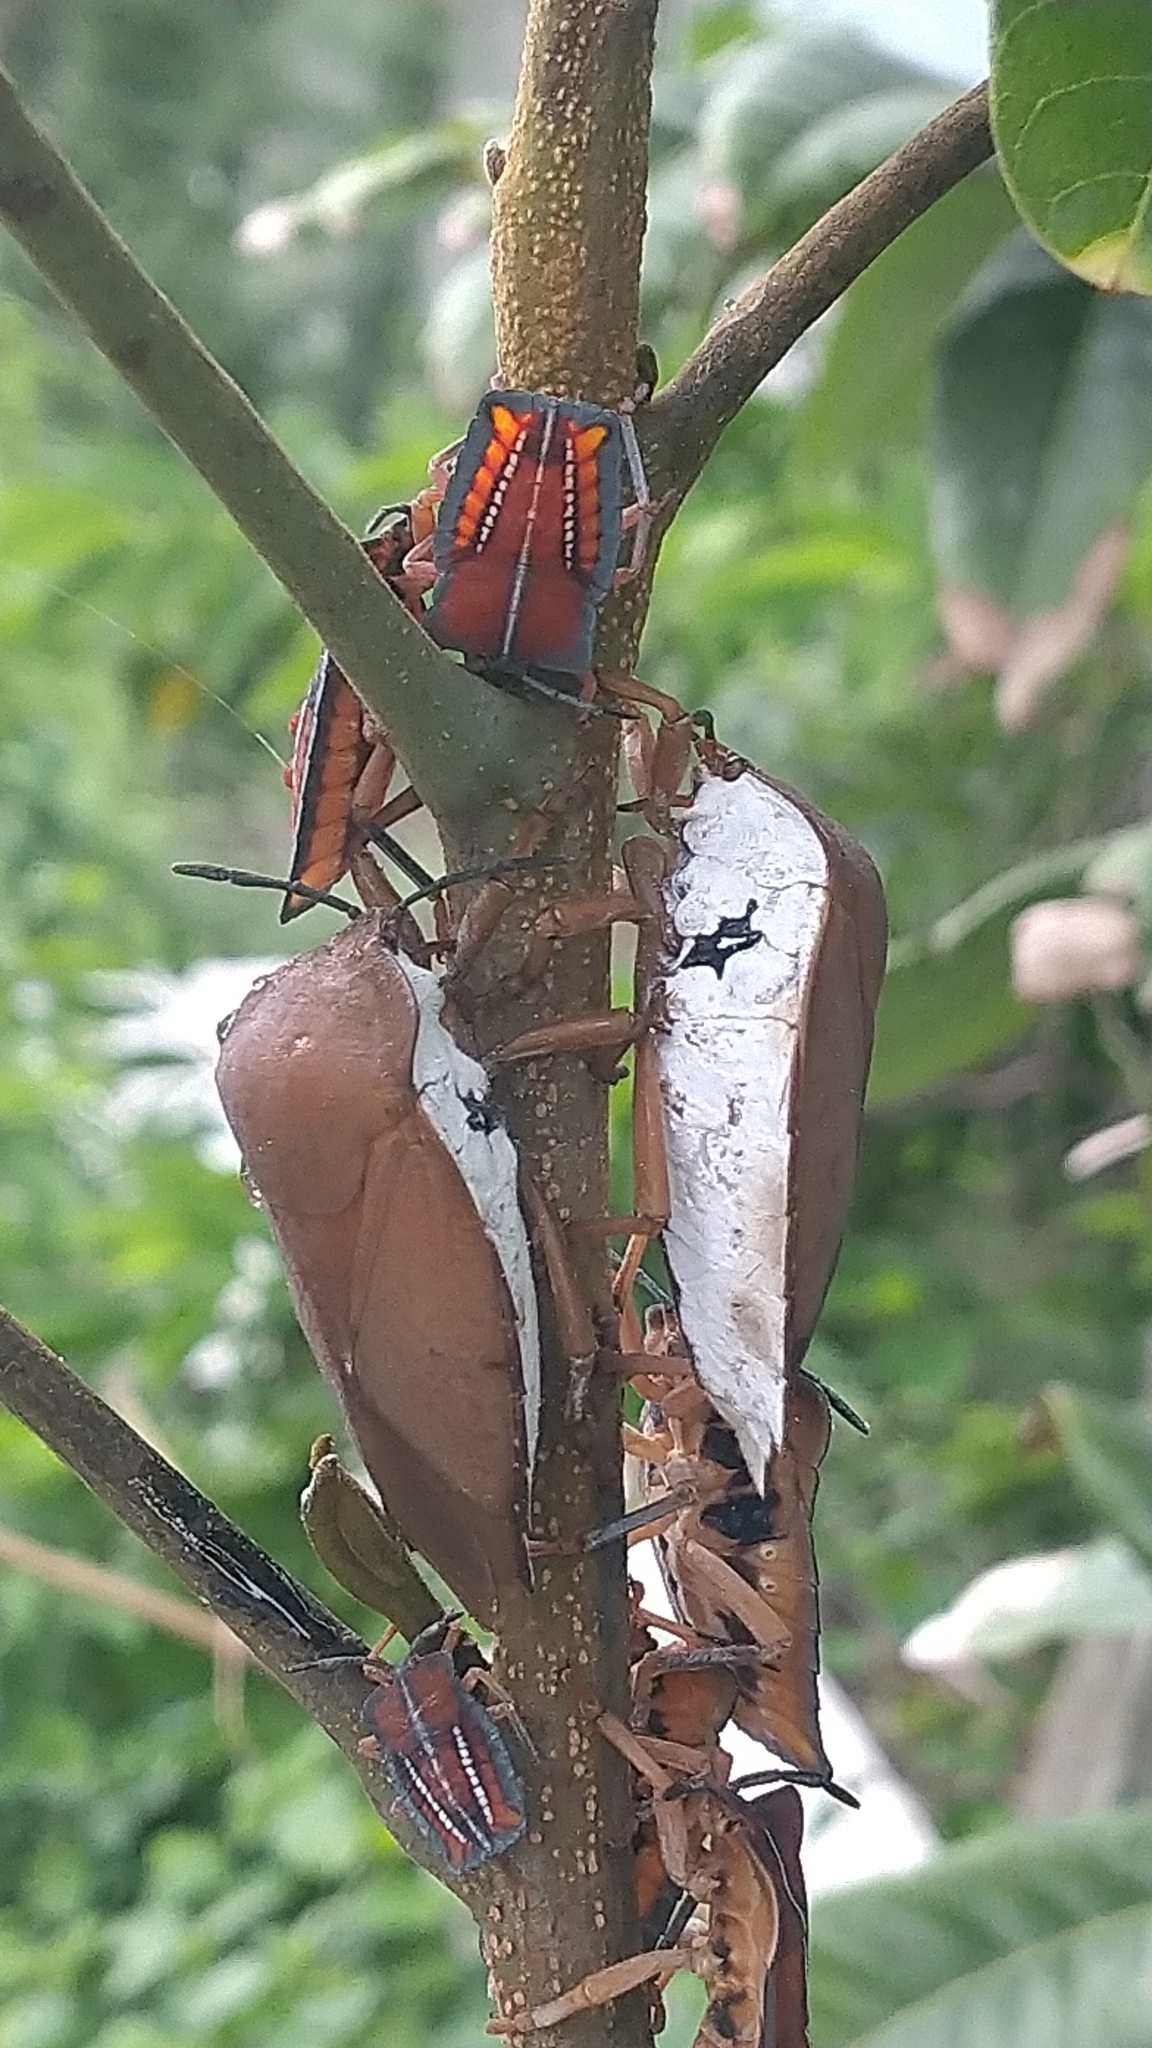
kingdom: Animalia
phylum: Arthropoda
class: Insecta
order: Hemiptera
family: Tessaratomidae
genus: Tessaratoma
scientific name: Tessaratoma papillosa
